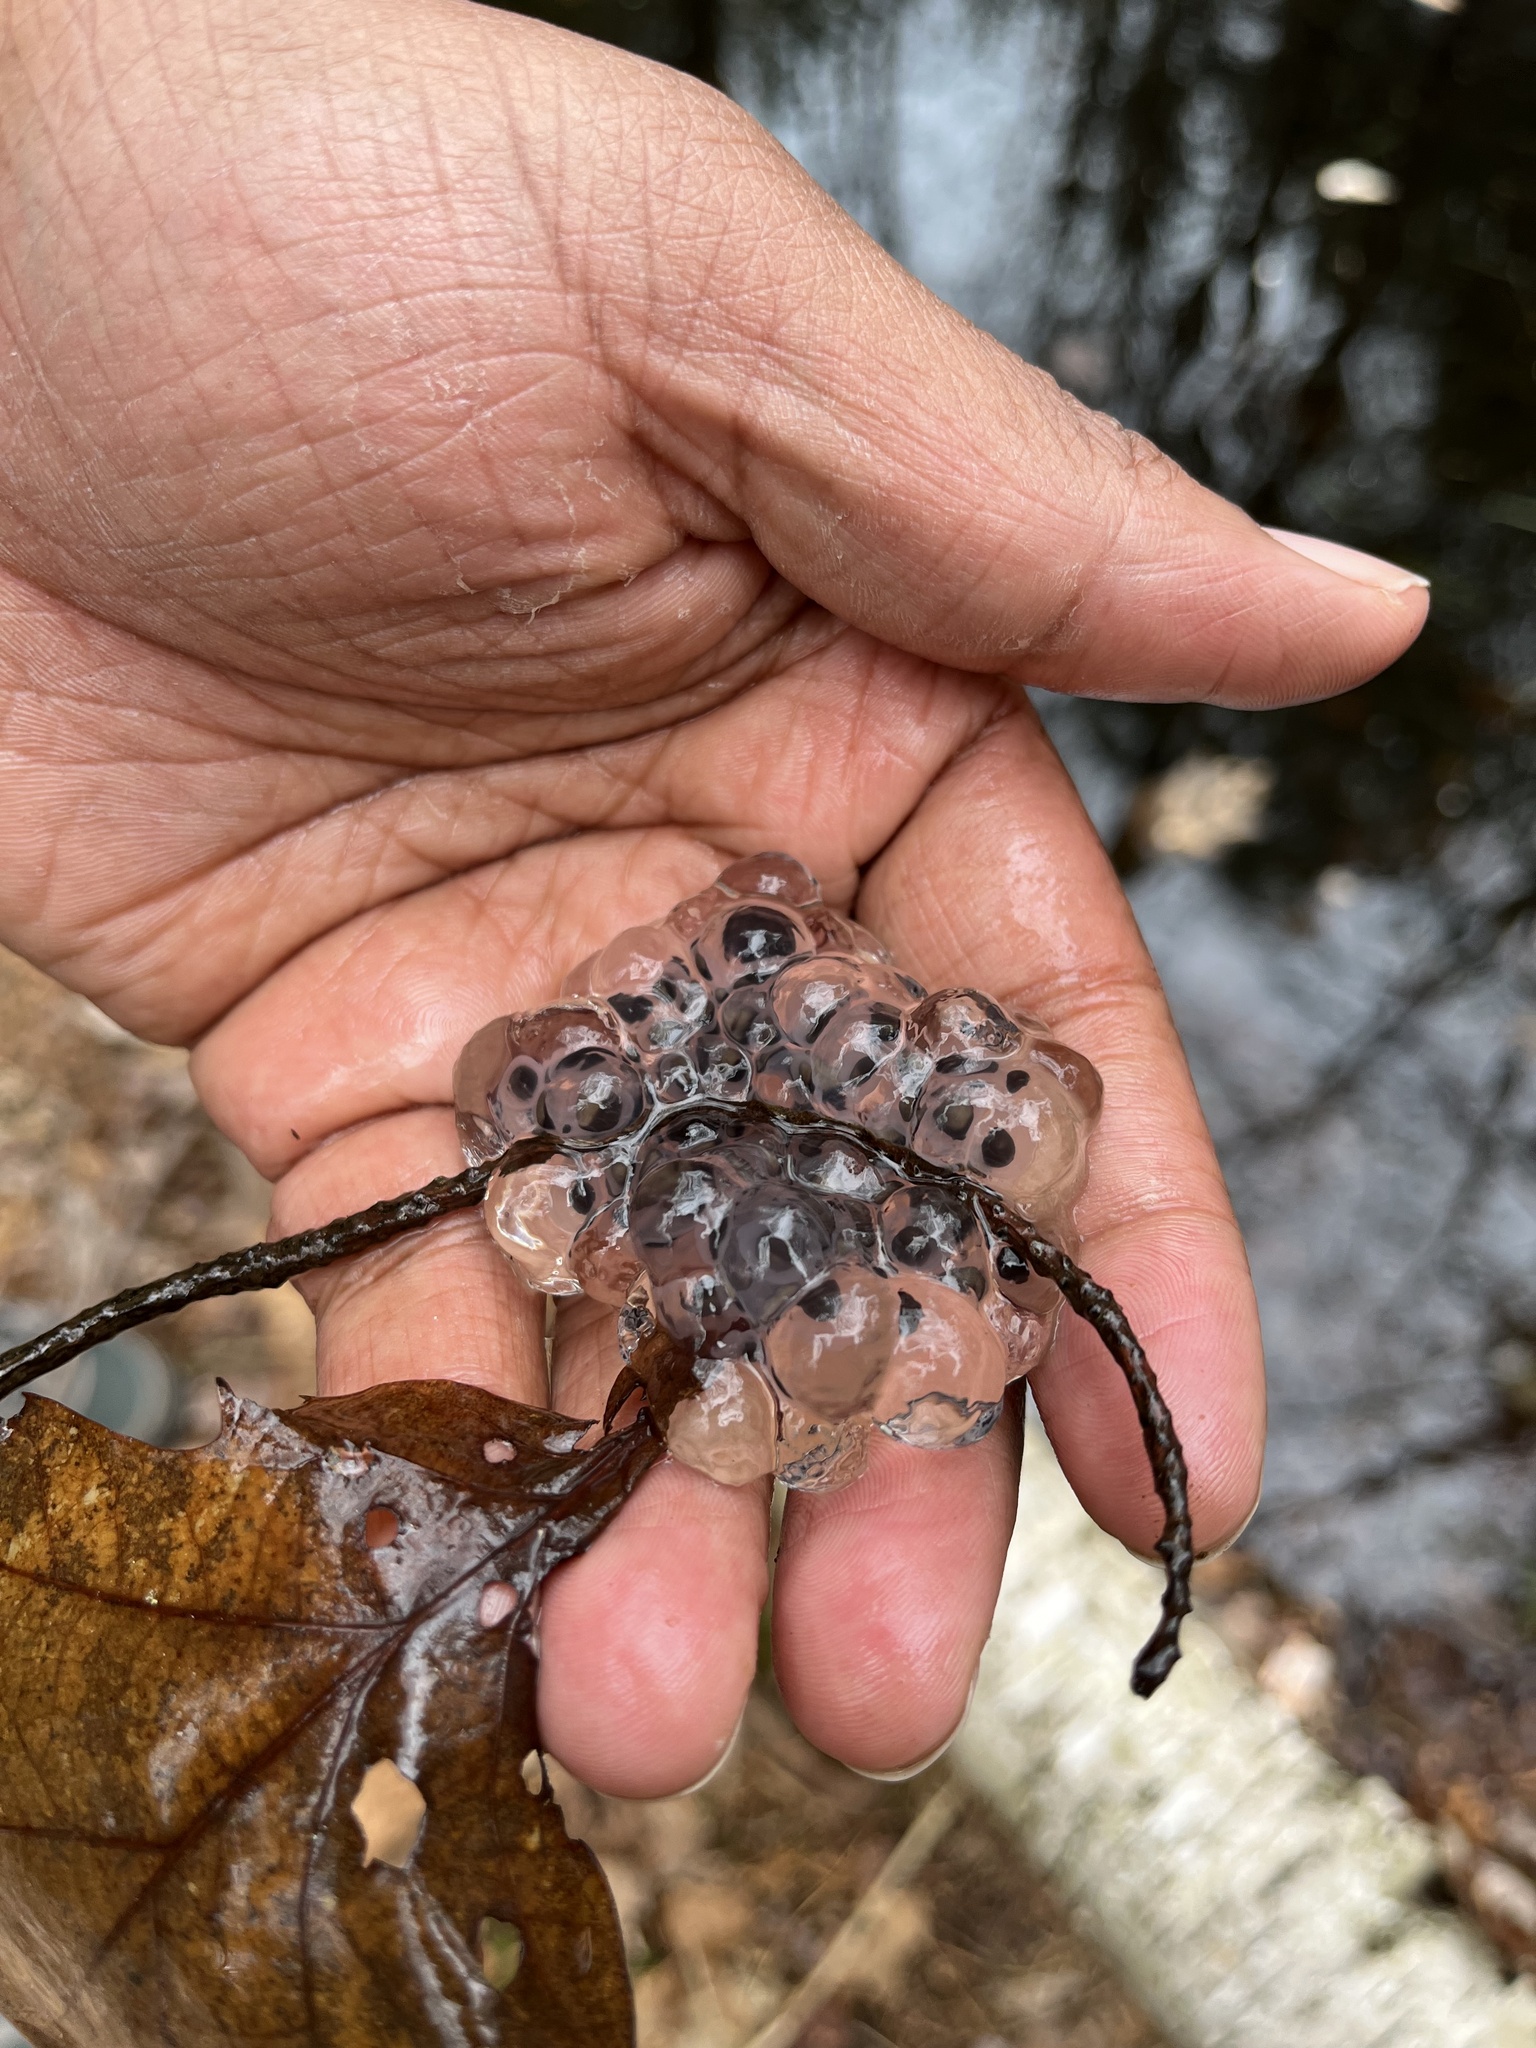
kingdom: Animalia
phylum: Chordata
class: Amphibia
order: Anura
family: Ranidae
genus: Lithobates
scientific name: Lithobates sylvaticus
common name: Wood frog
